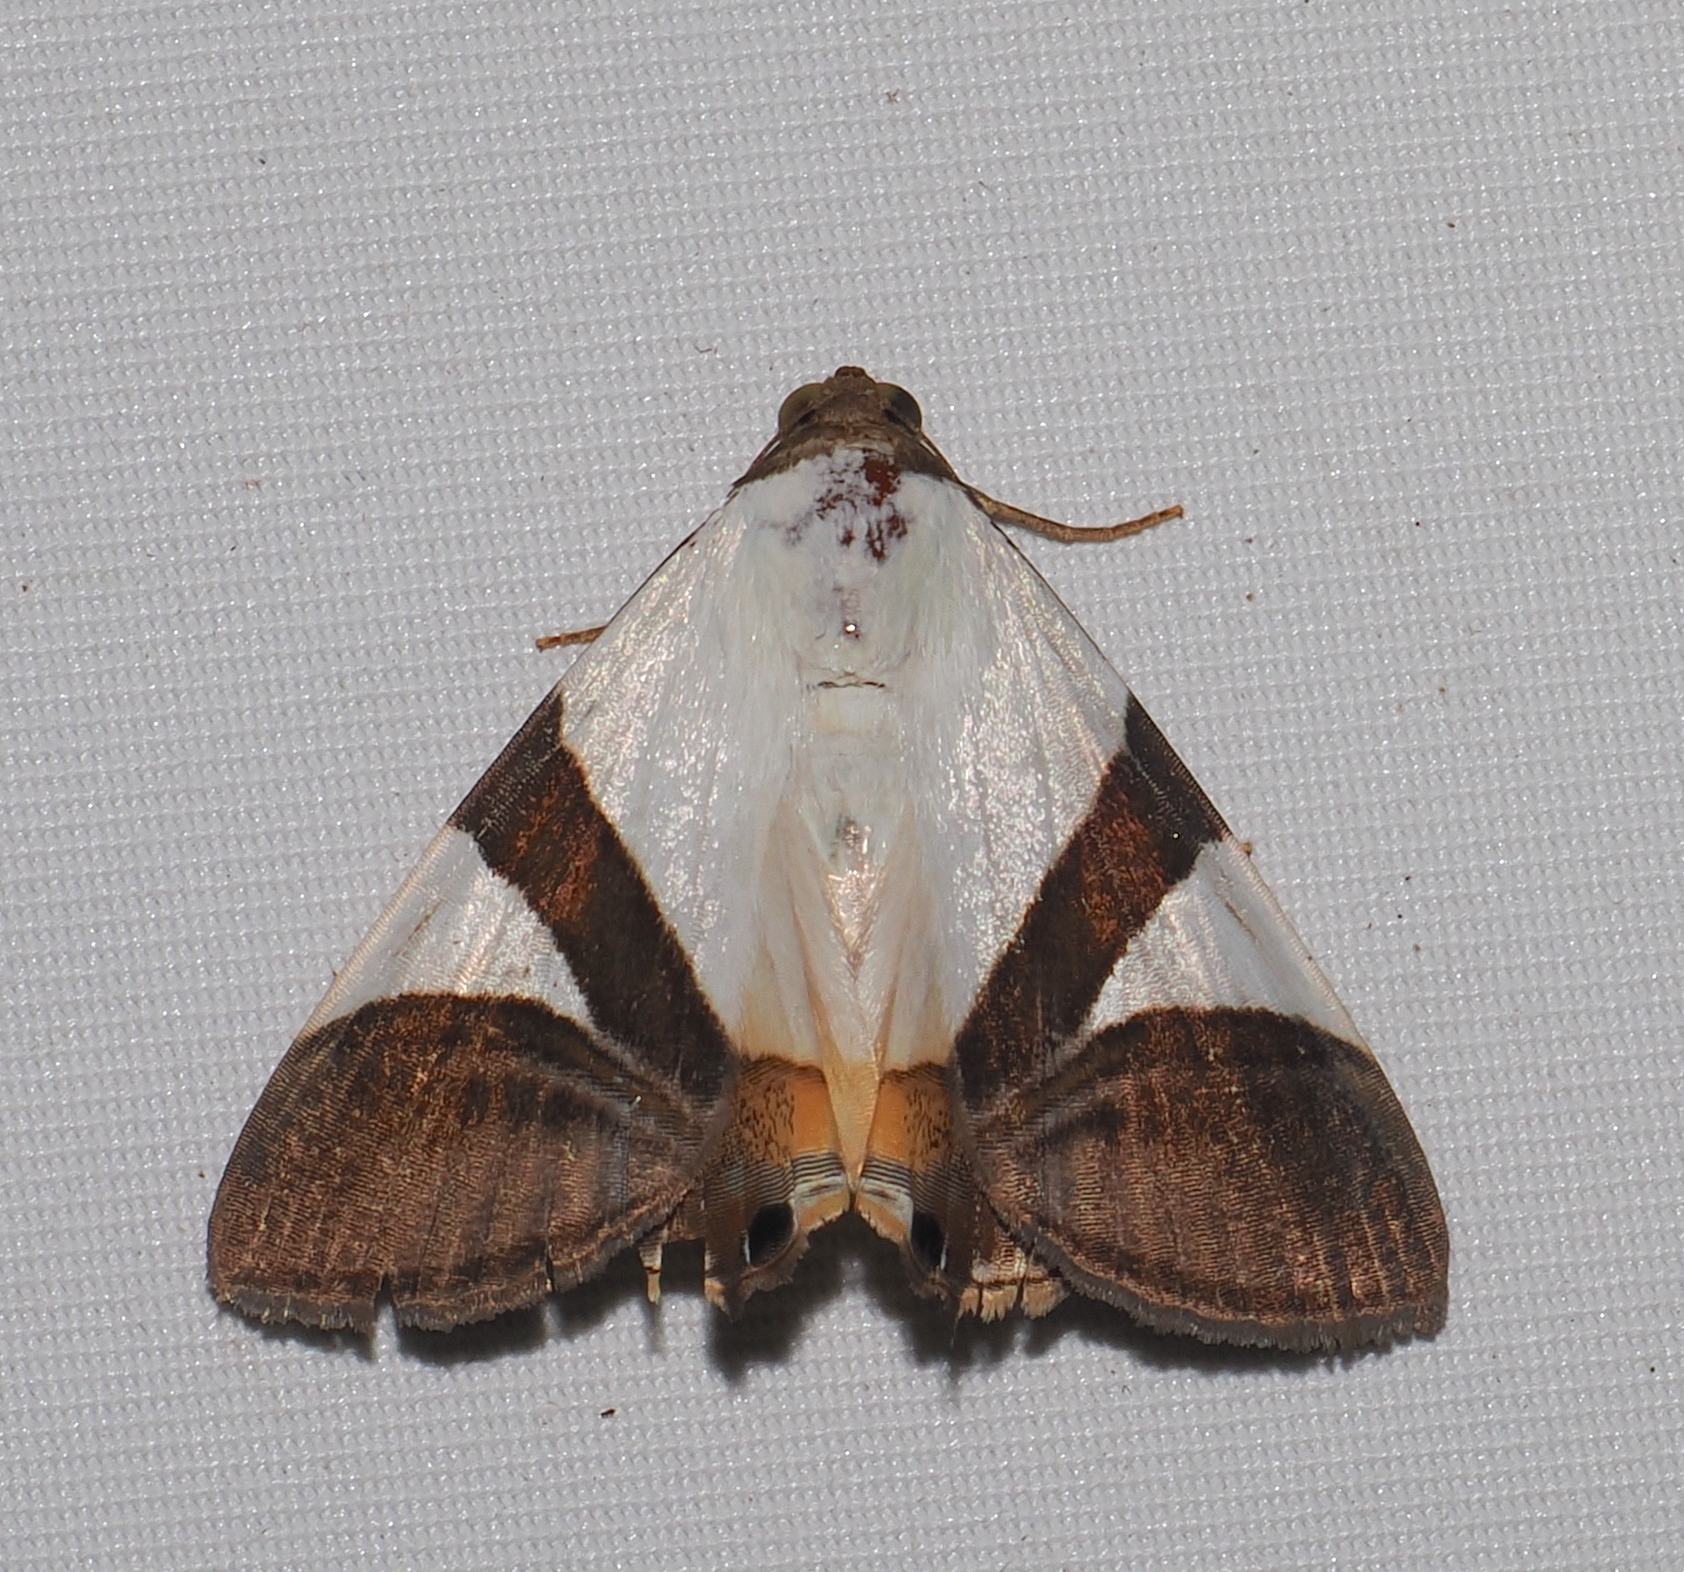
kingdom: Animalia
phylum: Arthropoda
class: Insecta
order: Lepidoptera
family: Erebidae
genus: Eulepidotis
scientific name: Eulepidotis dominicata
